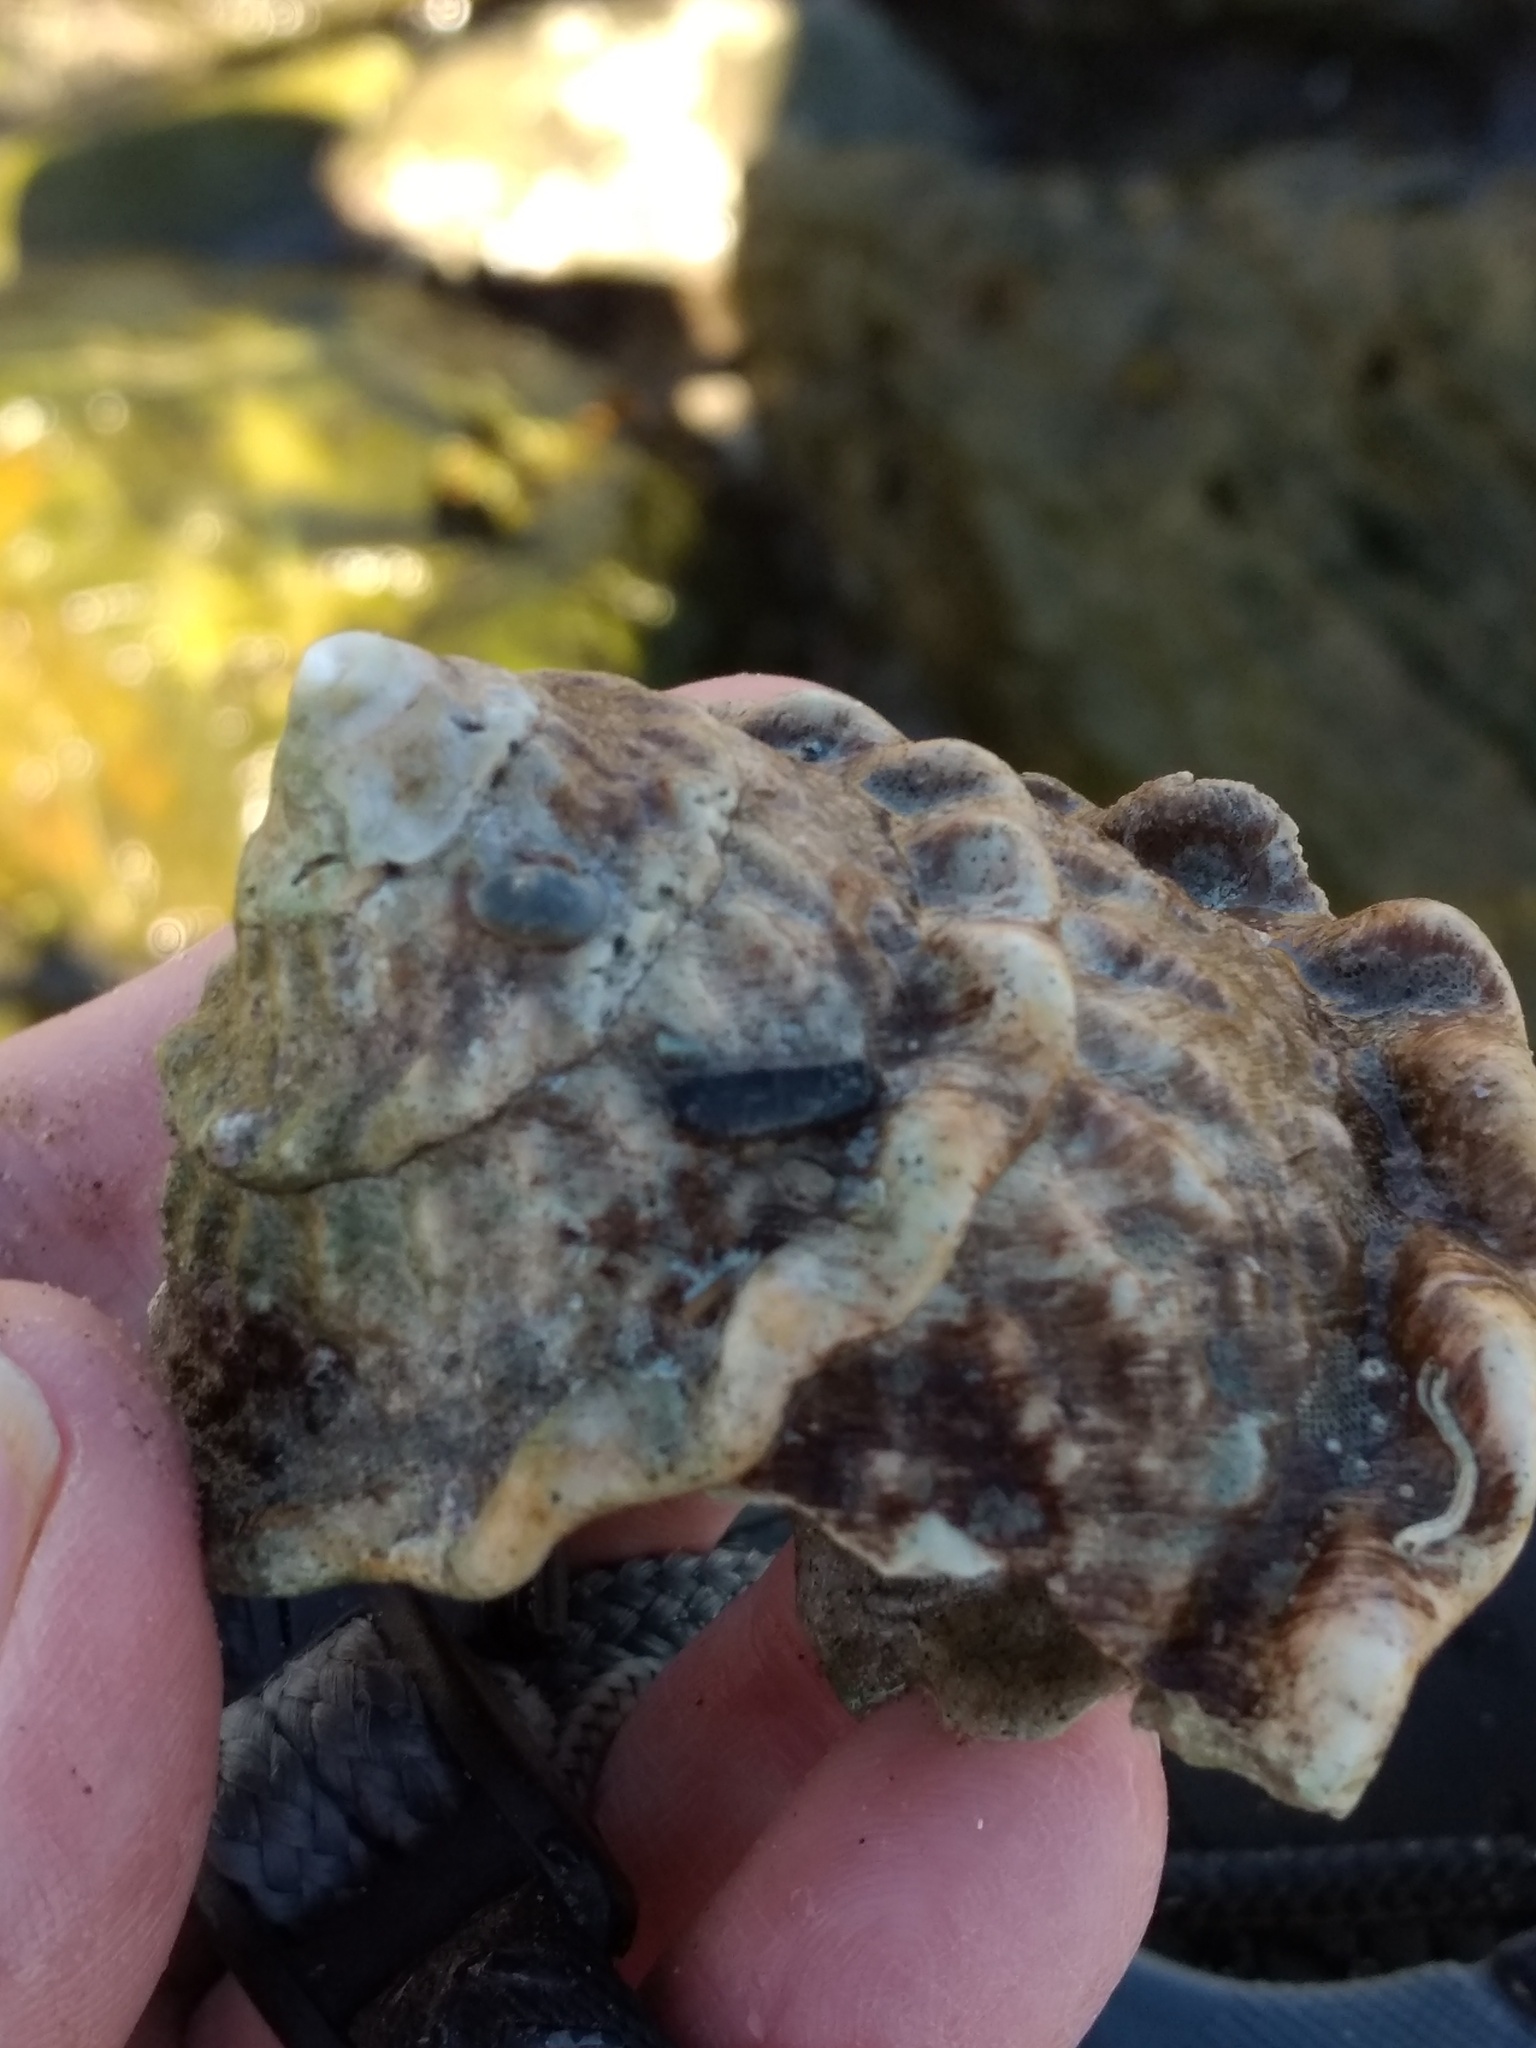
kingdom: Animalia
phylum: Mollusca
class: Gastropoda
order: Trochida
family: Turbinidae
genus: Megastraea
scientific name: Megastraea undosa
